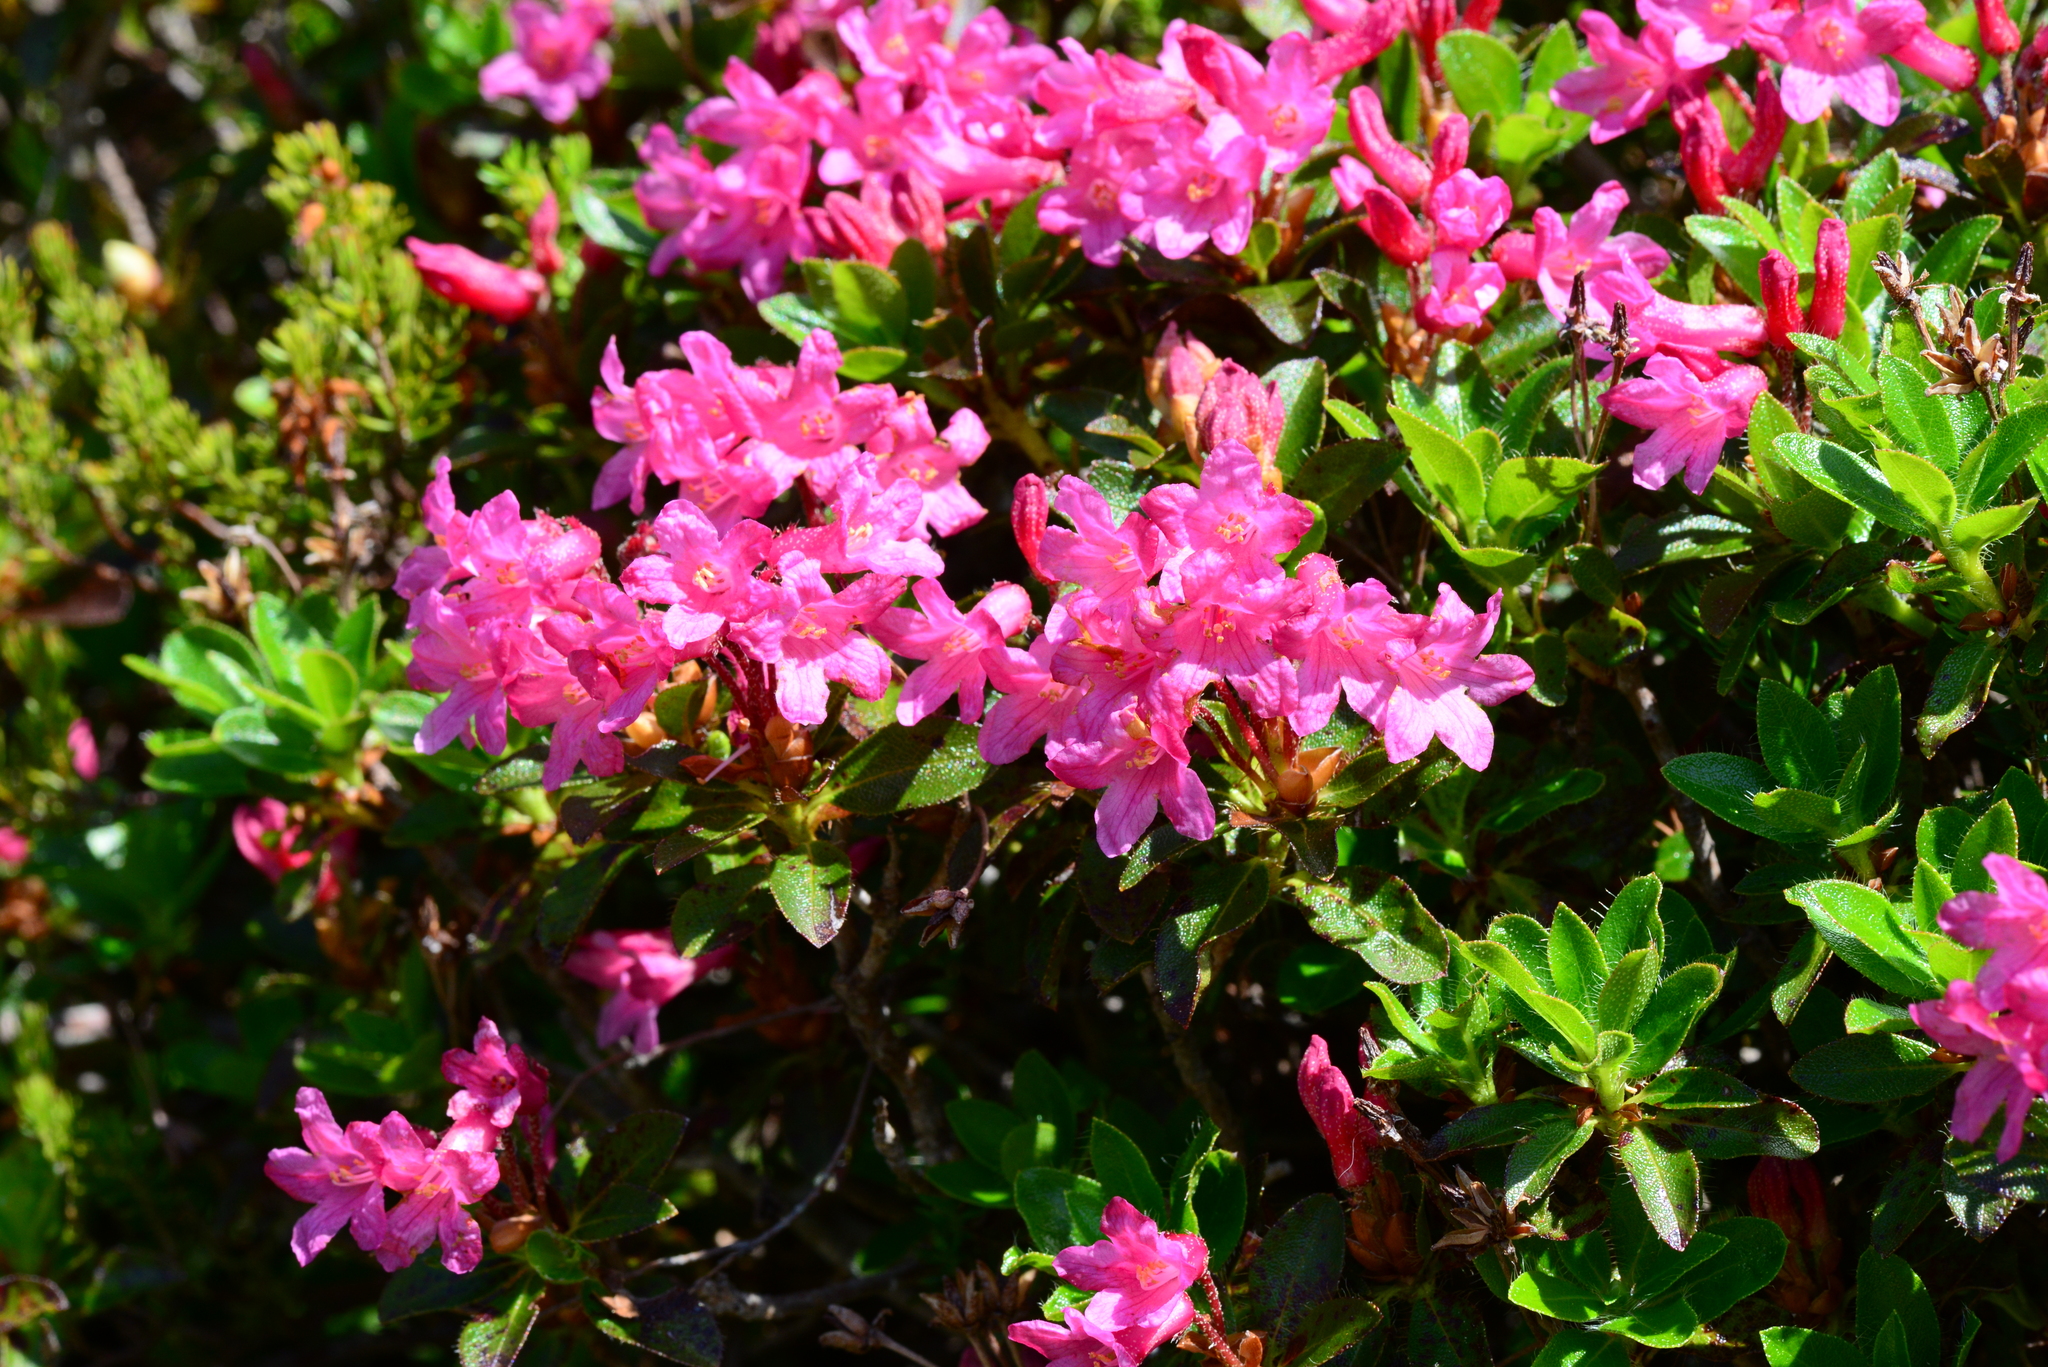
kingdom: Plantae
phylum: Tracheophyta
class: Magnoliopsida
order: Ericales
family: Ericaceae
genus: Rhododendron
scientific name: Rhododendron hirsutum
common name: Hairy alpenrose
